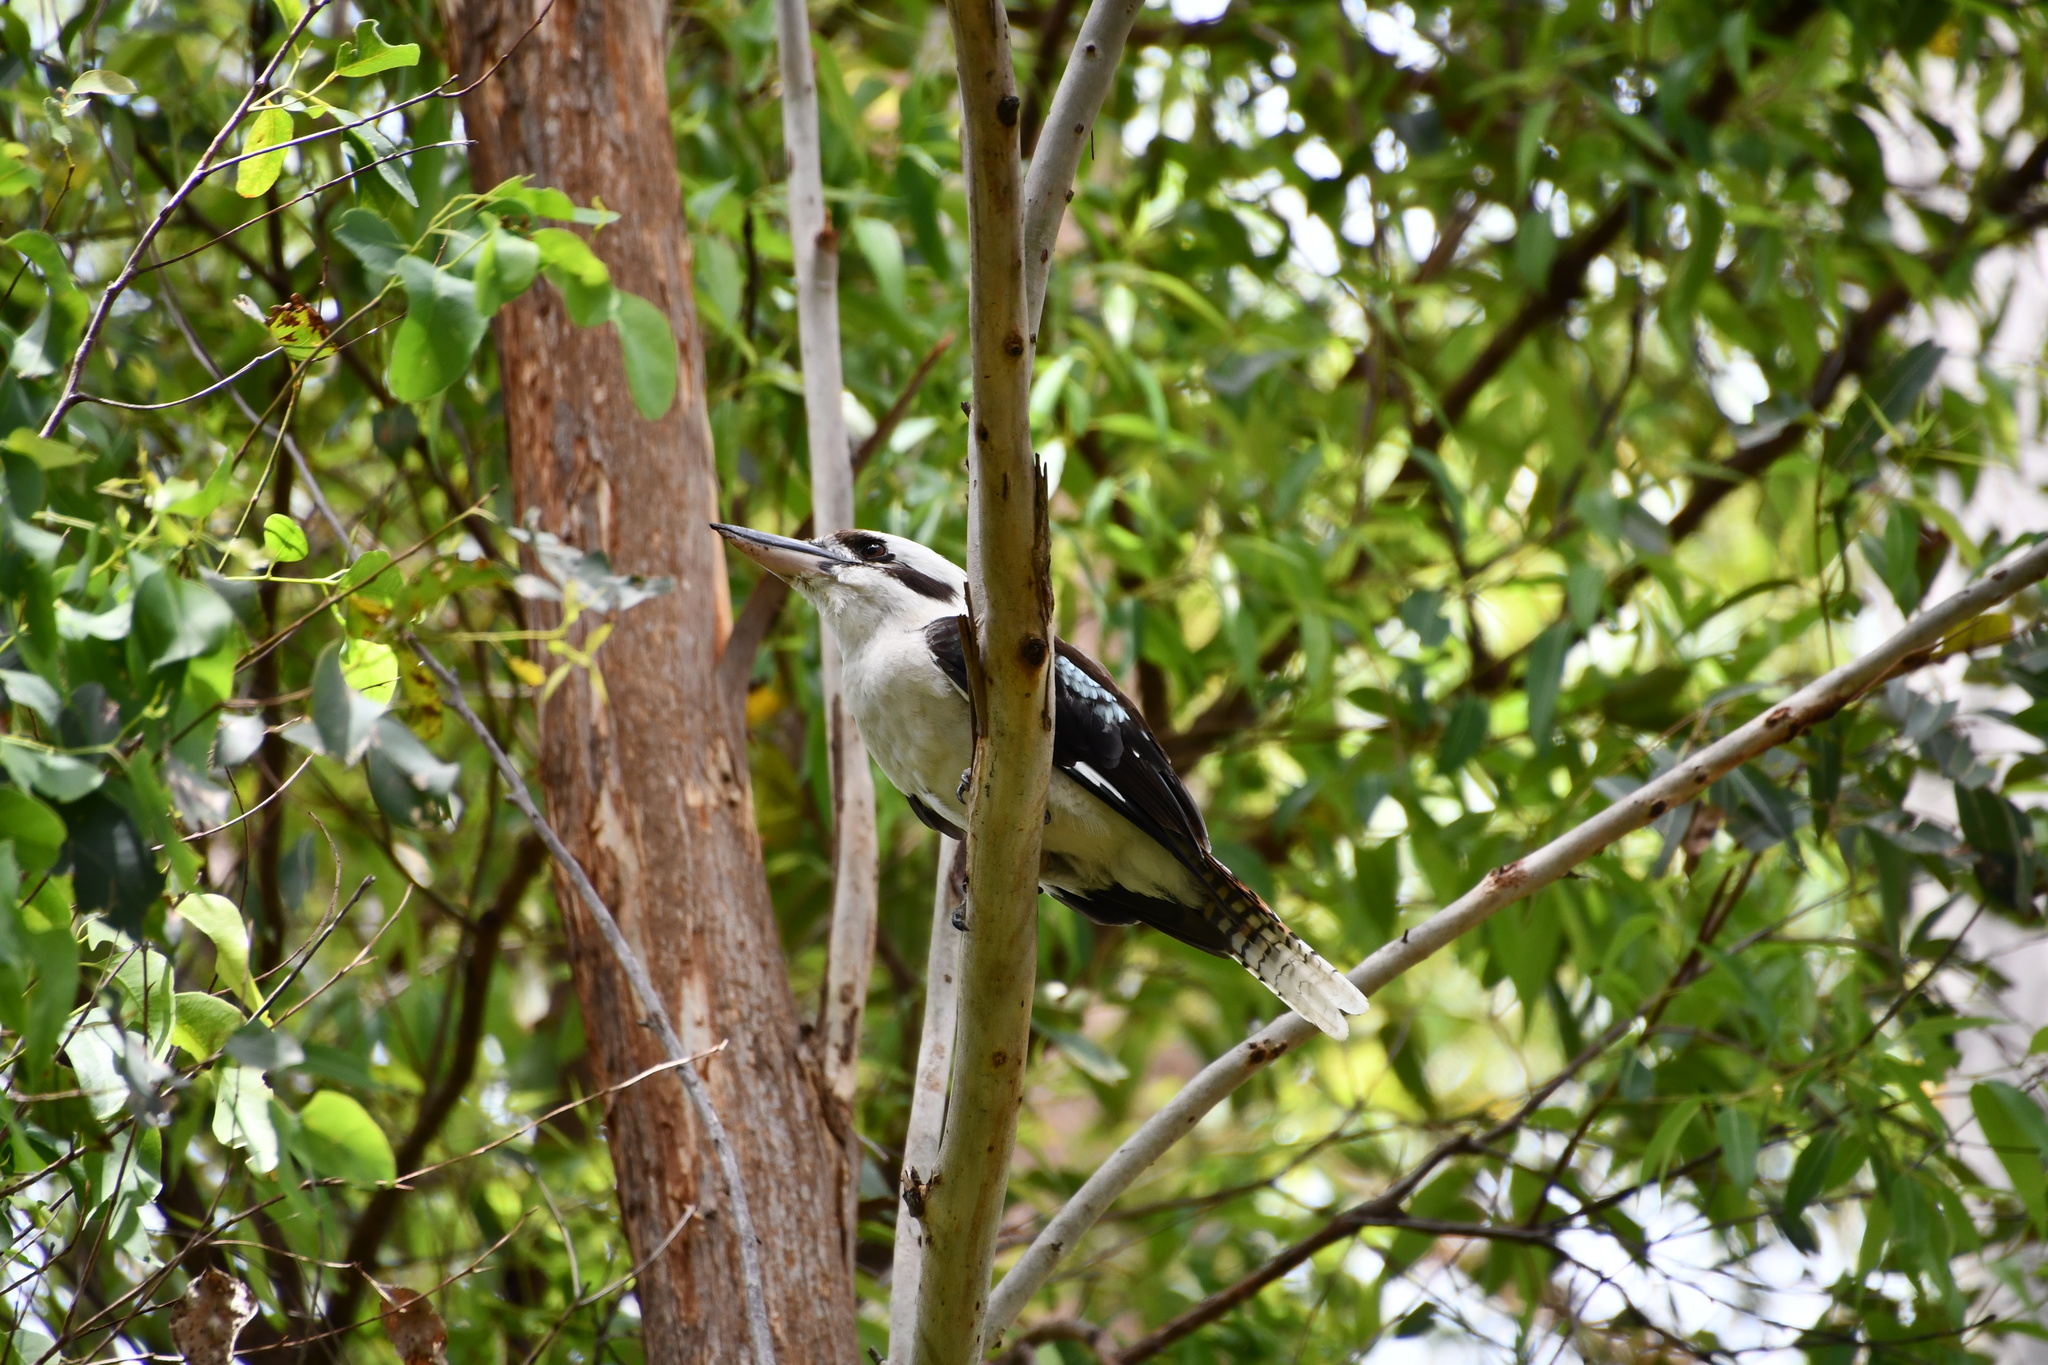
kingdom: Animalia
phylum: Chordata
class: Aves
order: Coraciiformes
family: Alcedinidae
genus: Dacelo
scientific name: Dacelo novaeguineae
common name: Laughing kookaburra
